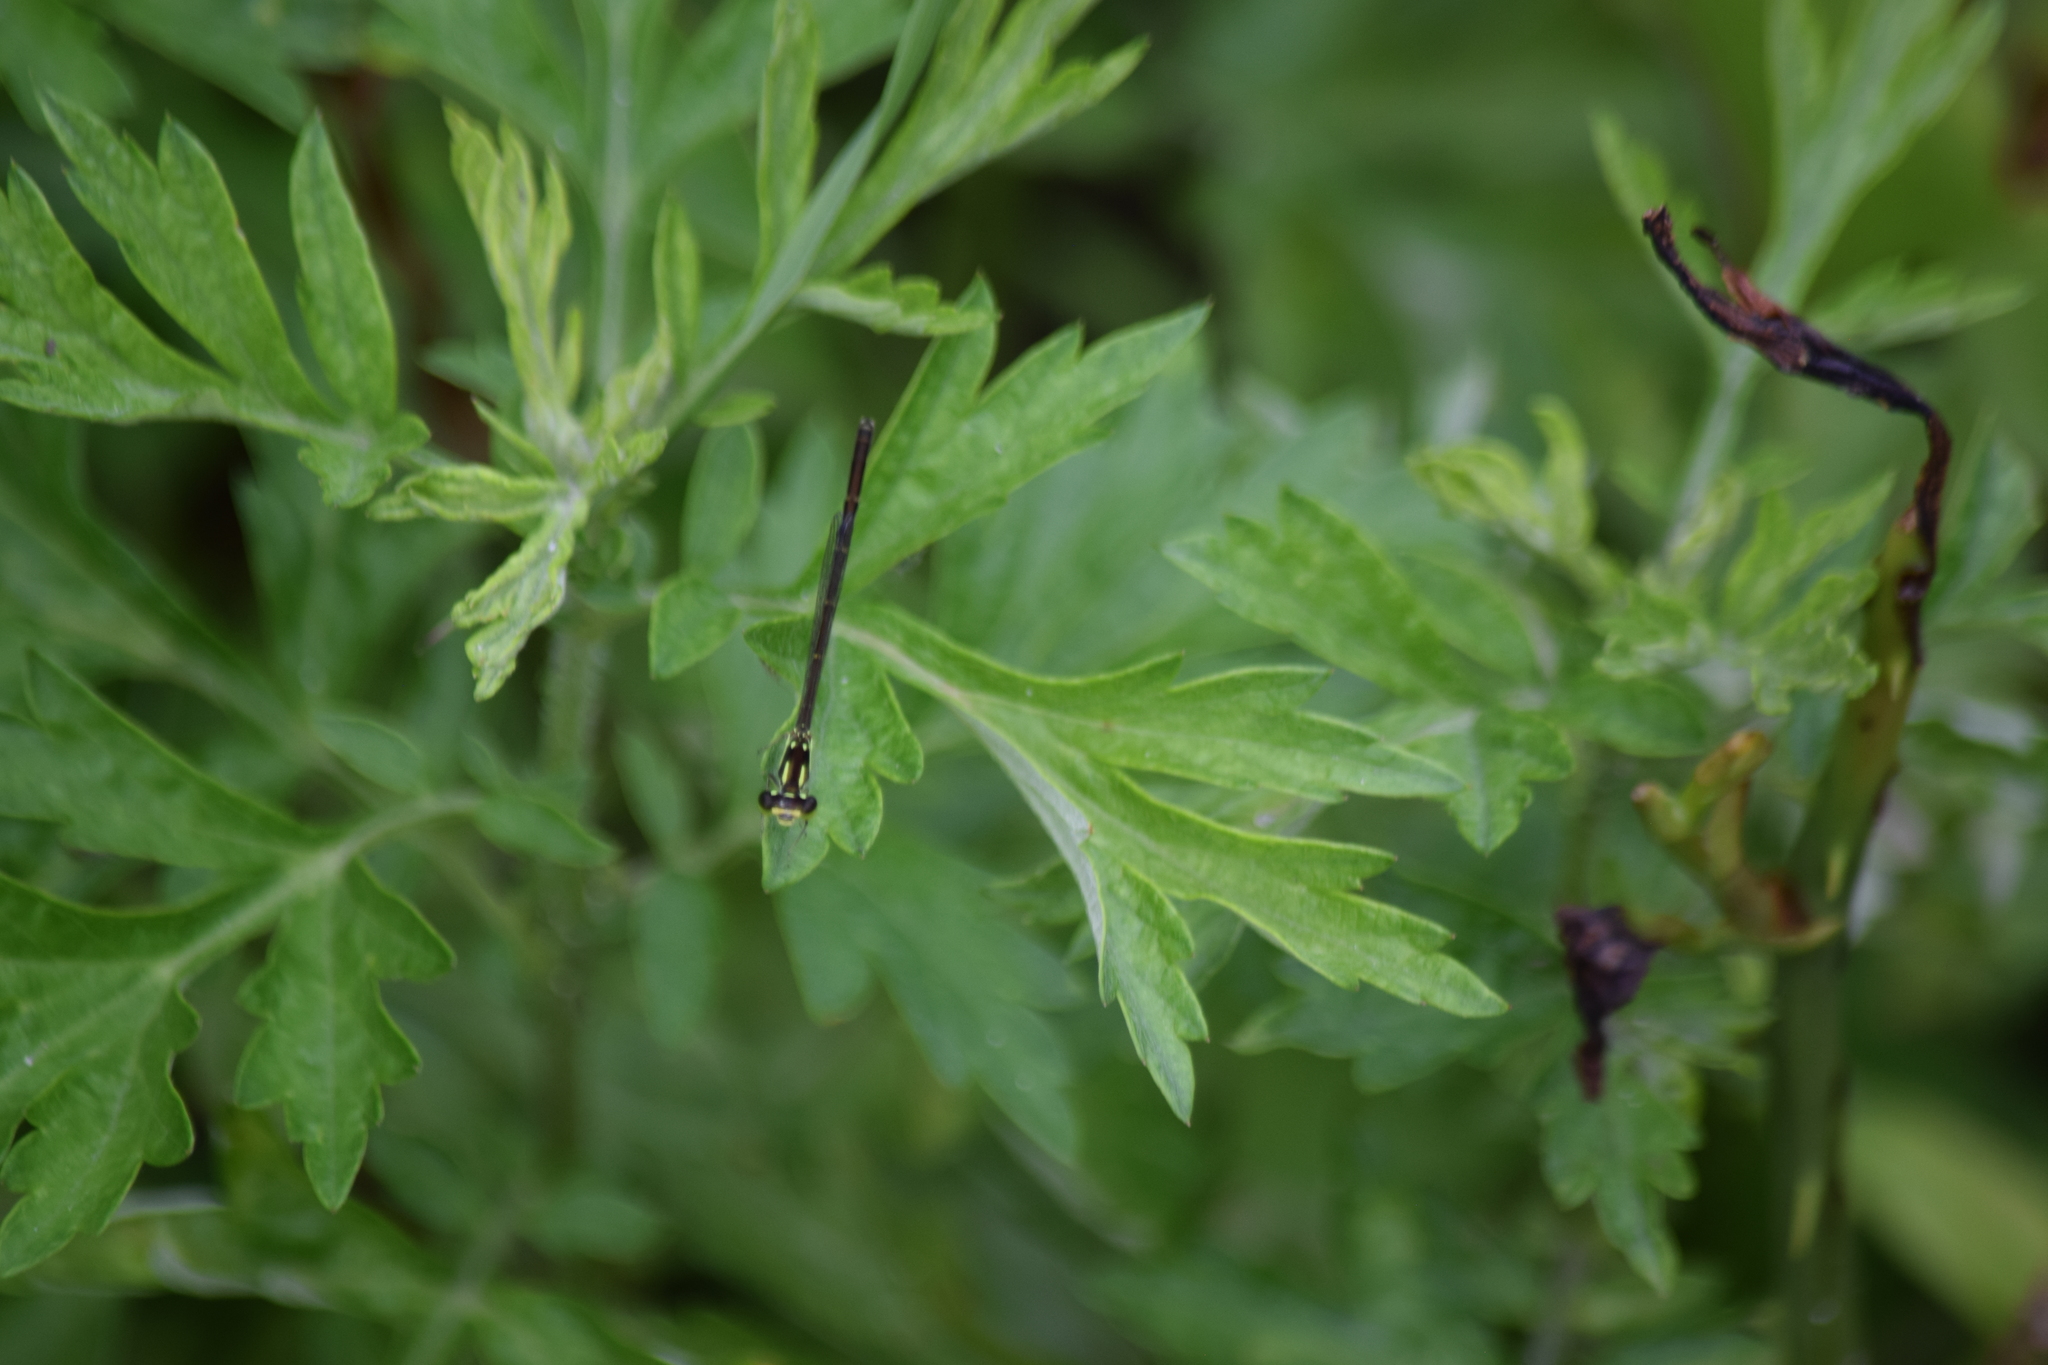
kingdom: Animalia
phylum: Arthropoda
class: Insecta
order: Odonata
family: Coenagrionidae
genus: Ischnura
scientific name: Ischnura posita
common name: Fragile forktail
